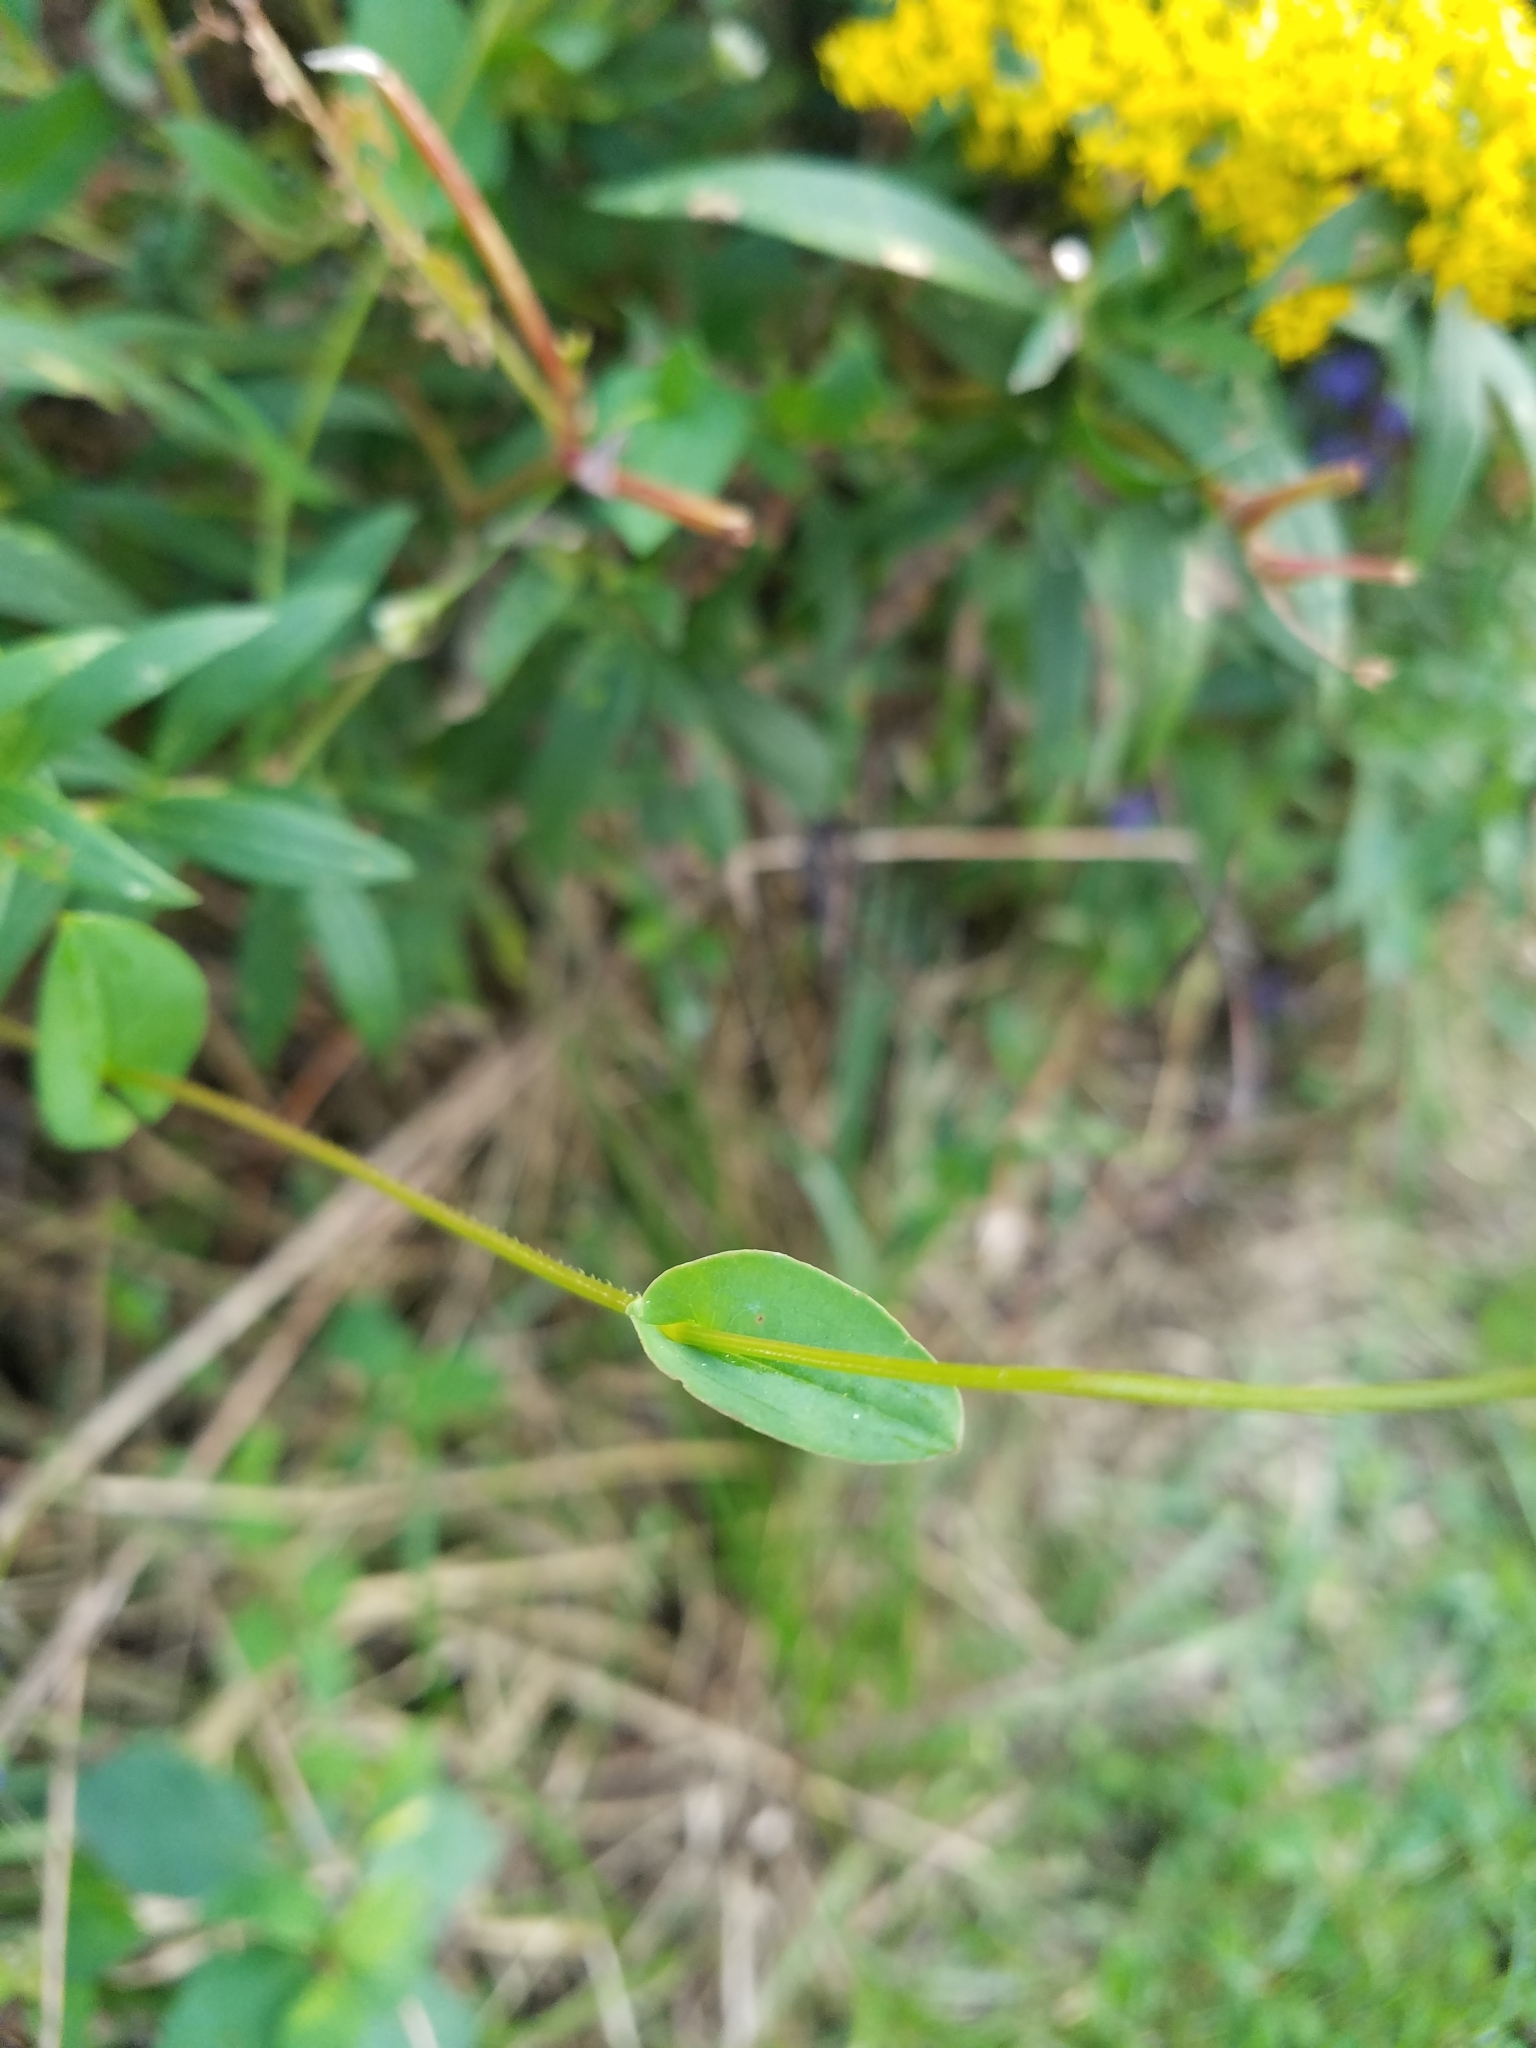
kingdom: Plantae
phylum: Tracheophyta
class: Magnoliopsida
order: Caryophyllales
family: Polygonaceae
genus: Persicaria
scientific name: Persicaria sagittata
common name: American tearthumb
